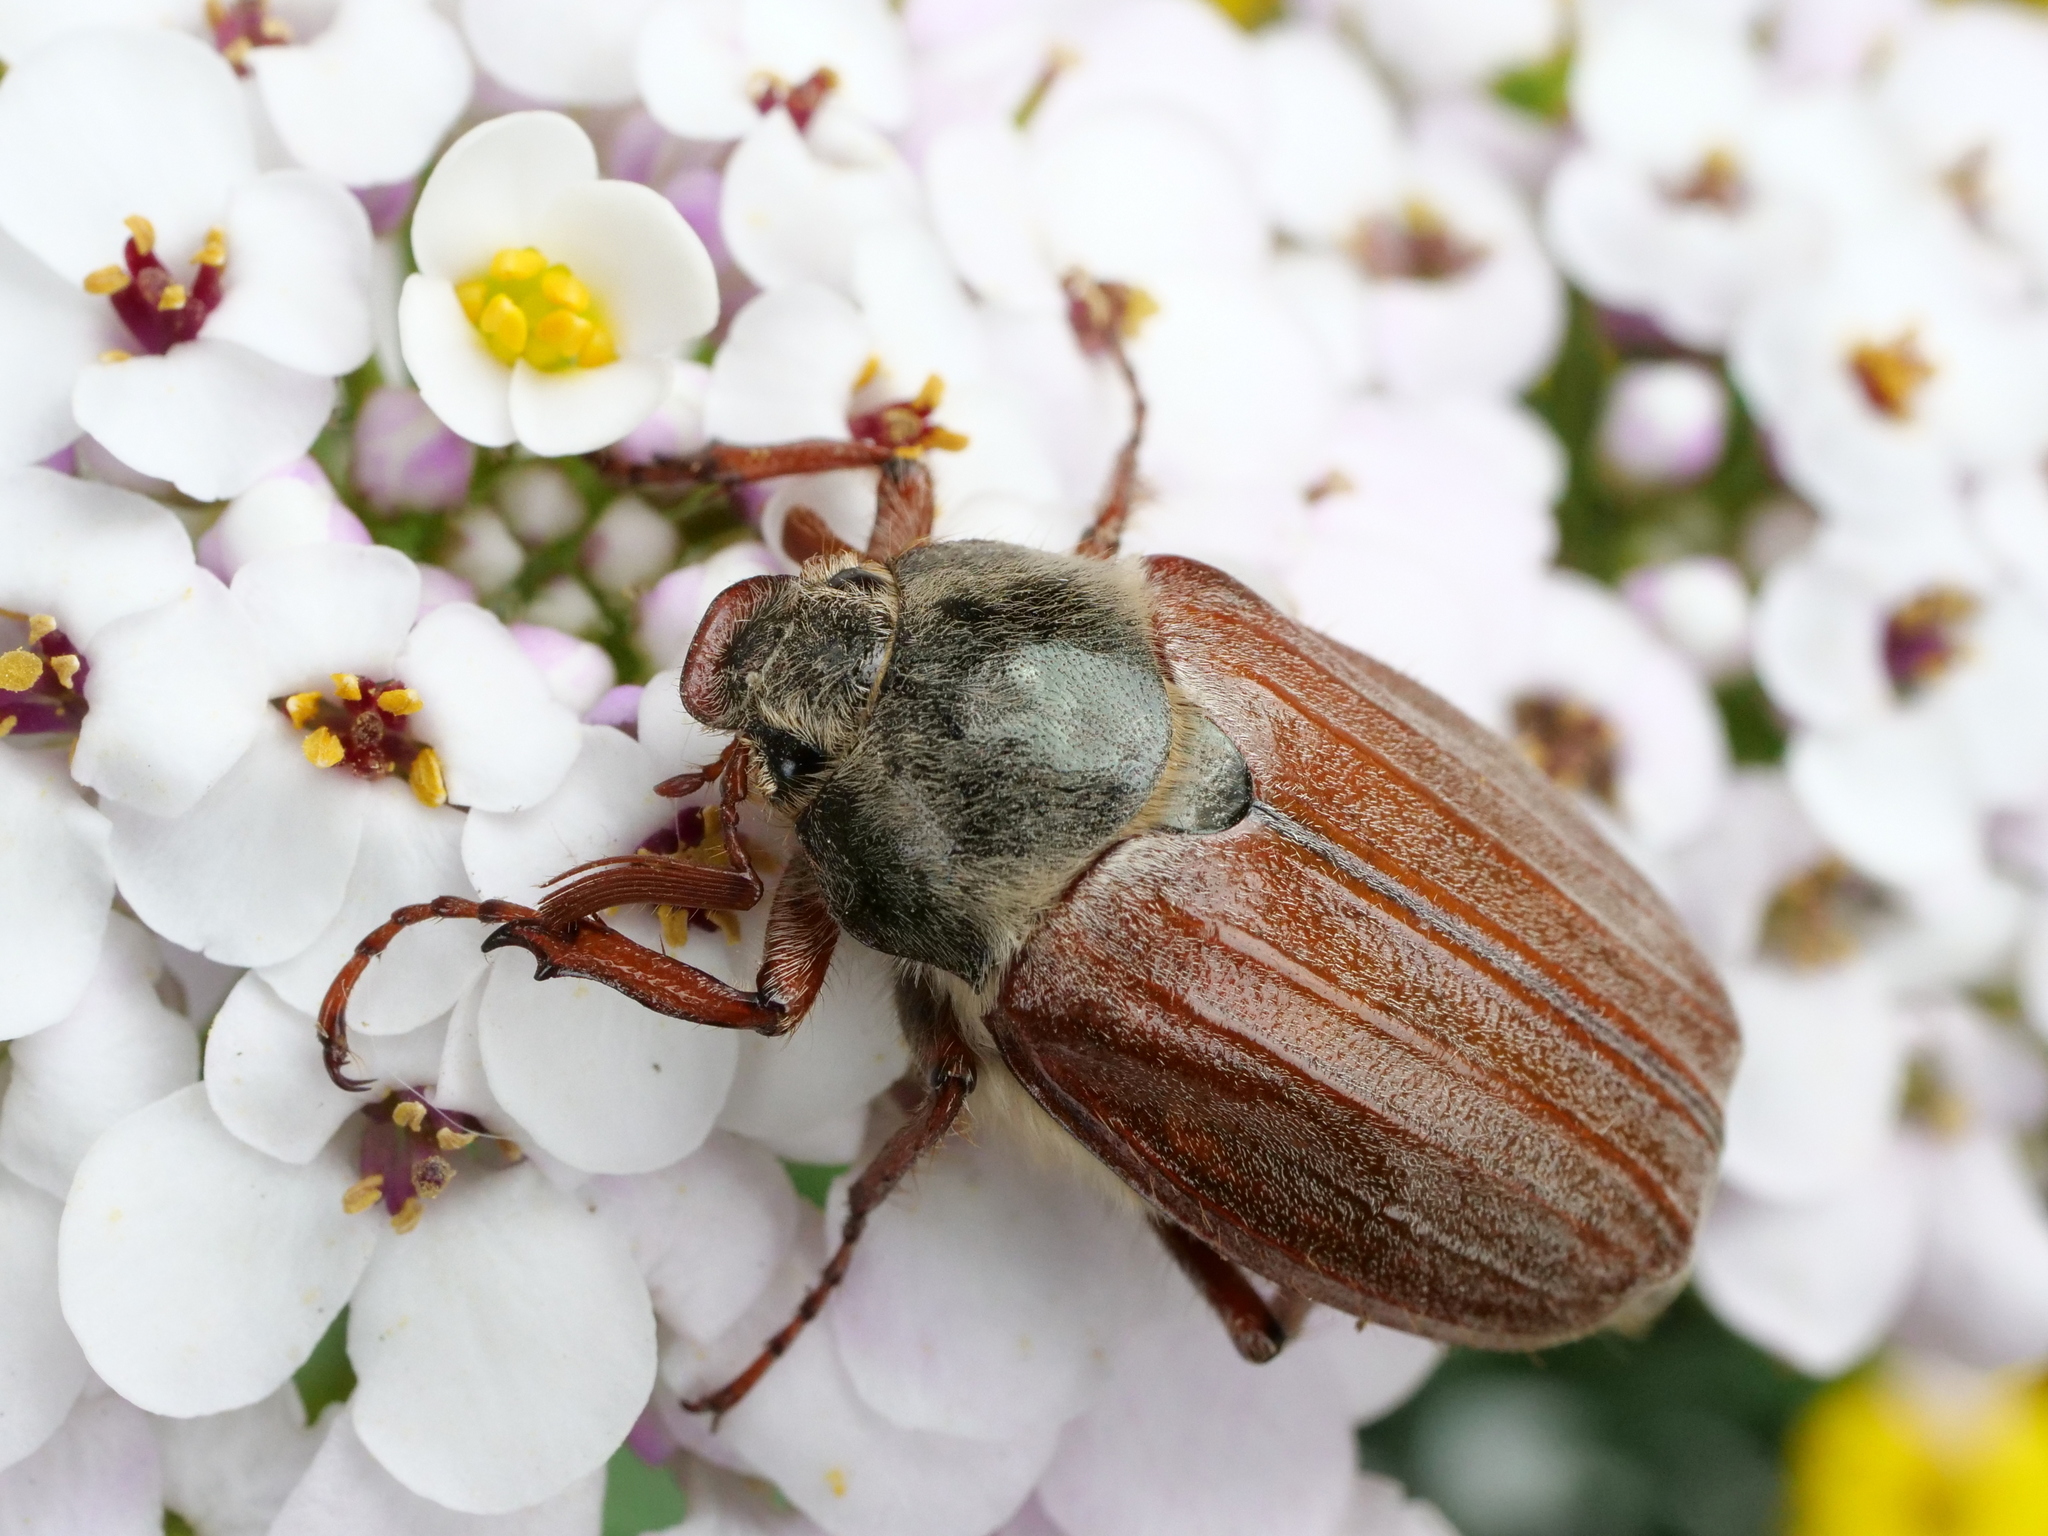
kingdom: Animalia
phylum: Arthropoda
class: Insecta
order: Coleoptera
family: Scarabaeidae
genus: Melolontha
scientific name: Melolontha melolontha
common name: Cockchafer maybeetle
